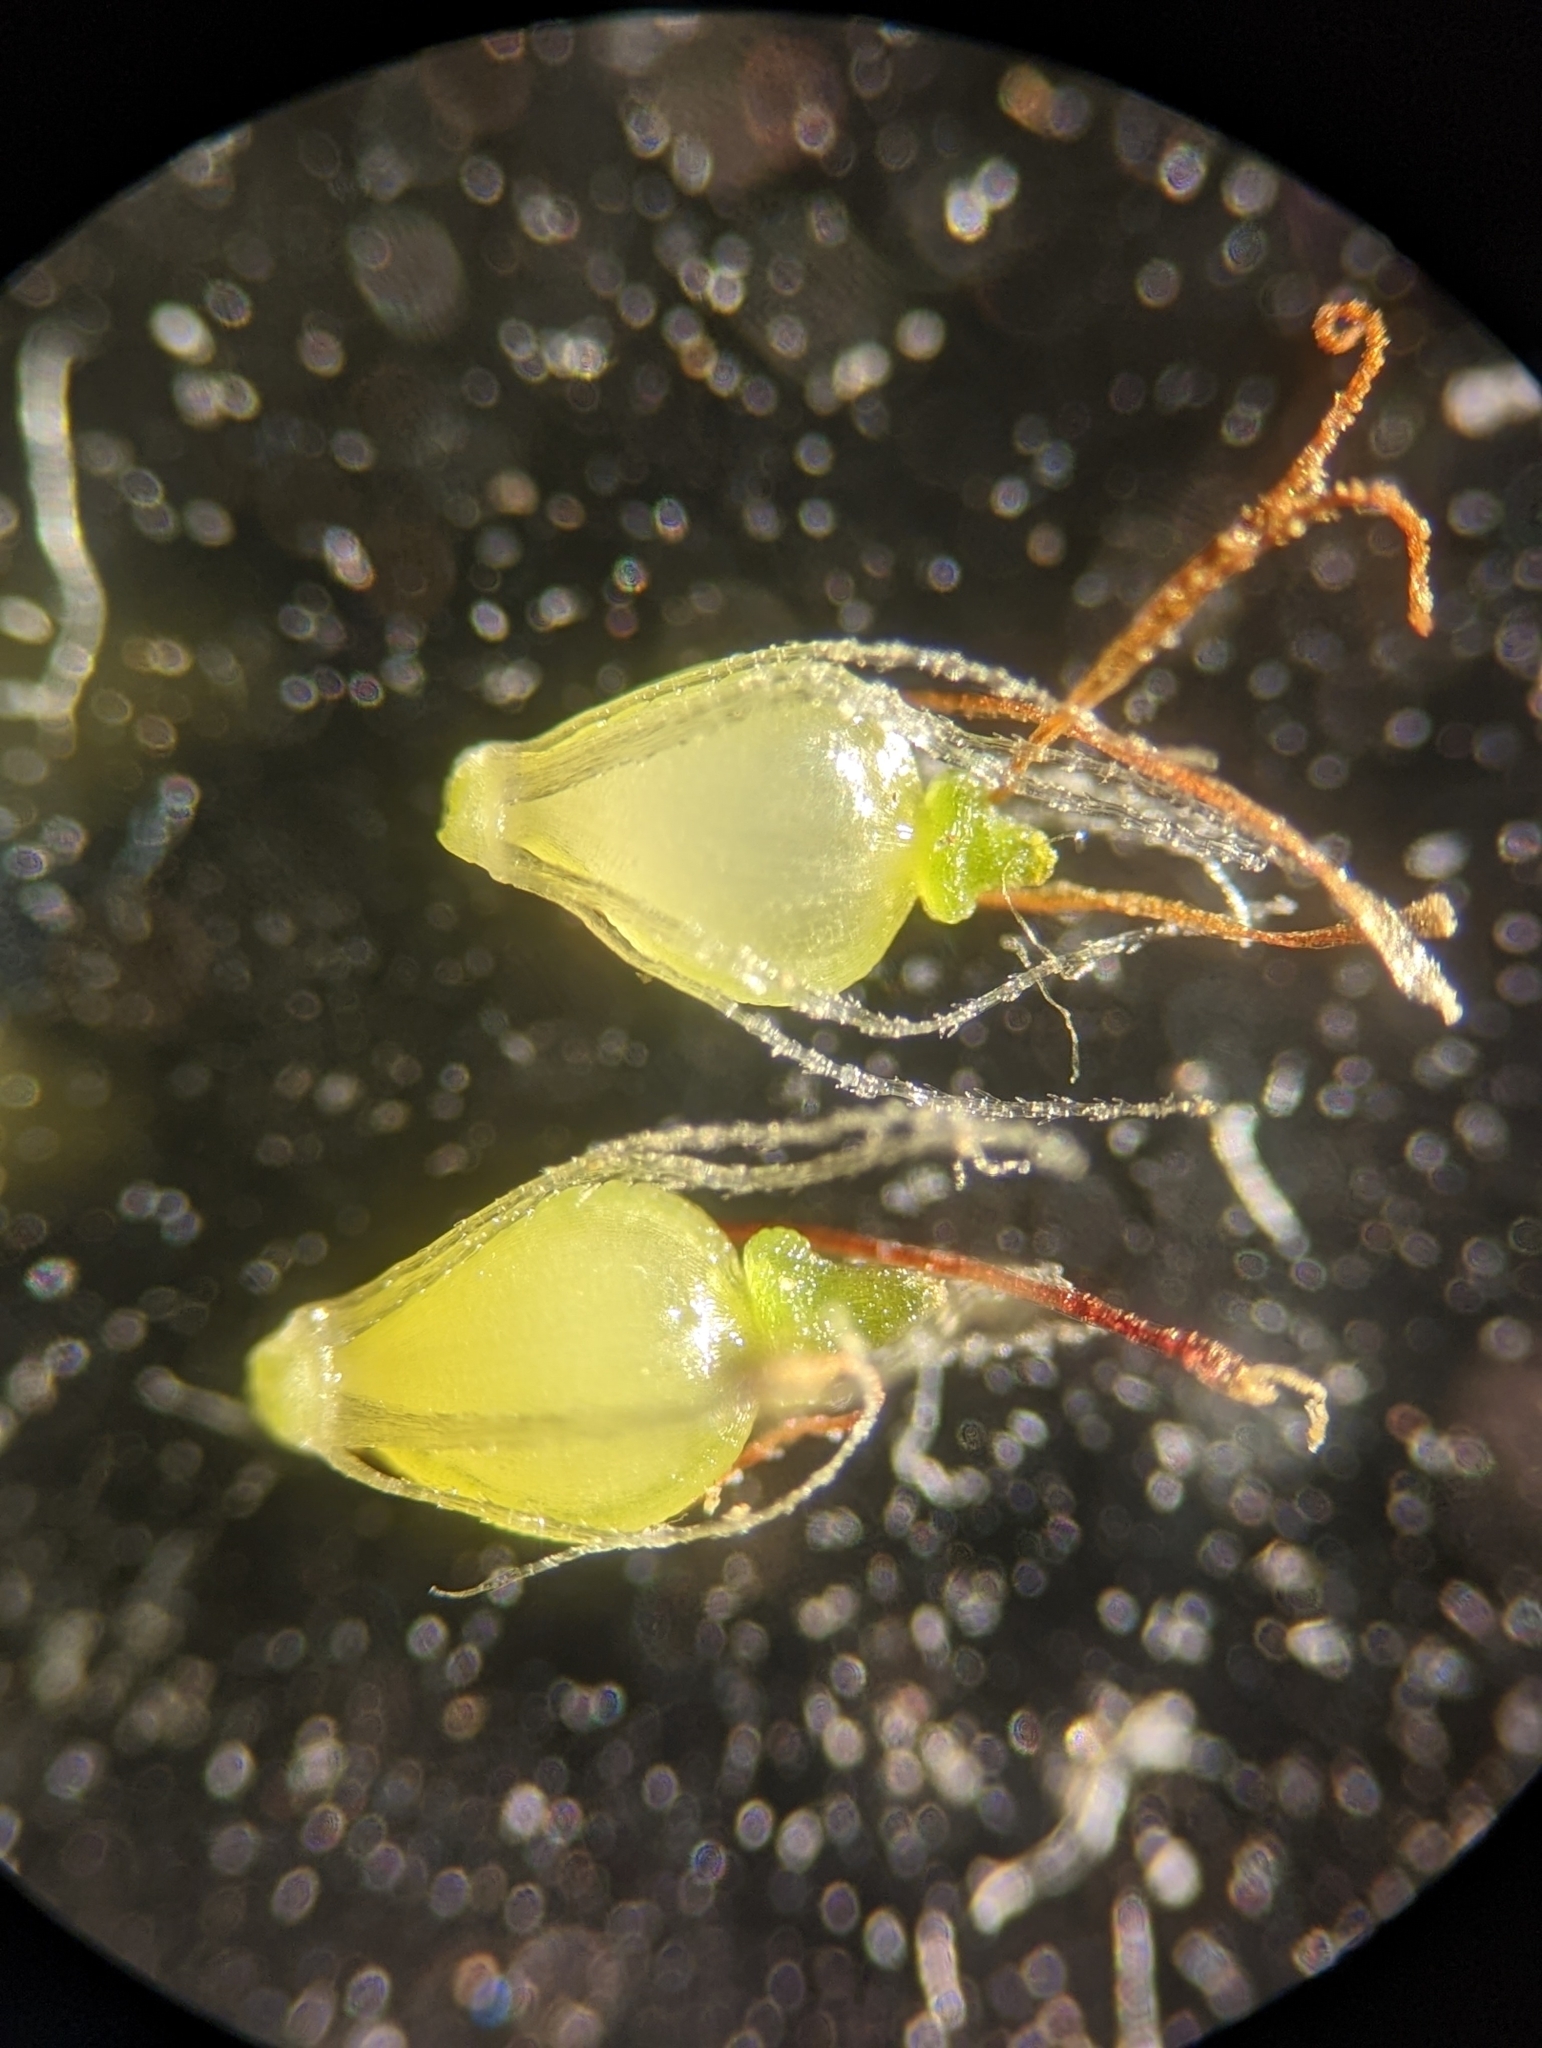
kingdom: Plantae
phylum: Tracheophyta
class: Liliopsida
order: Poales
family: Cyperaceae
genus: Eleocharis
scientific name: Eleocharis flavescens
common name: Yellow spikerush
